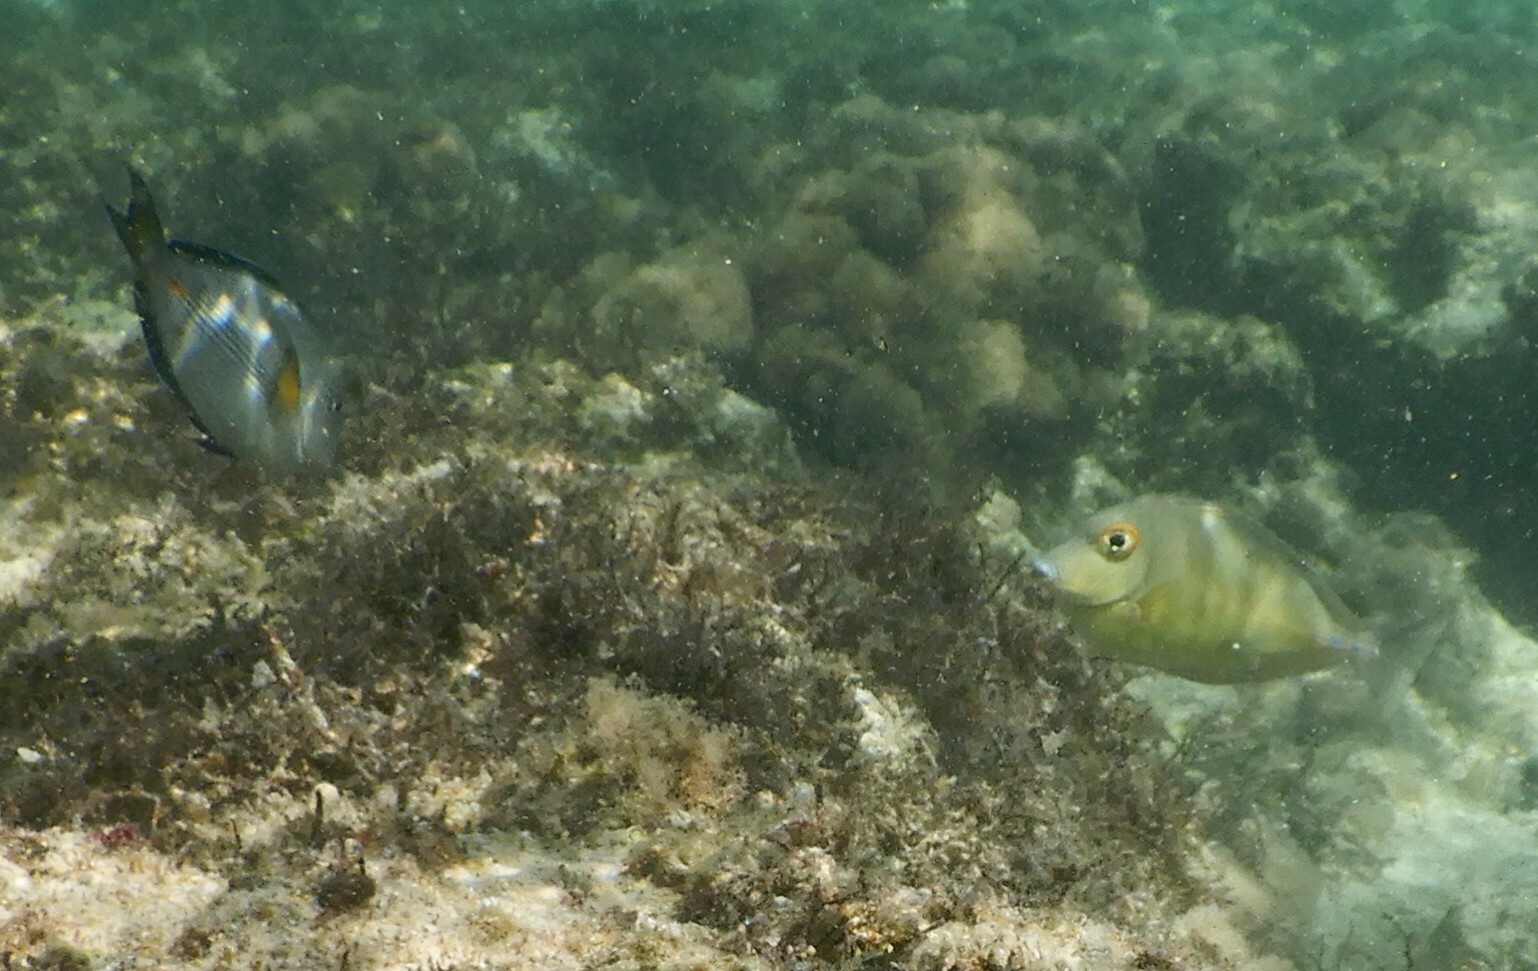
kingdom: Animalia
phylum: Chordata
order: Perciformes
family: Acanthuridae
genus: Acanthurus
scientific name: Acanthurus sohal
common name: Red sea surgeonfish
